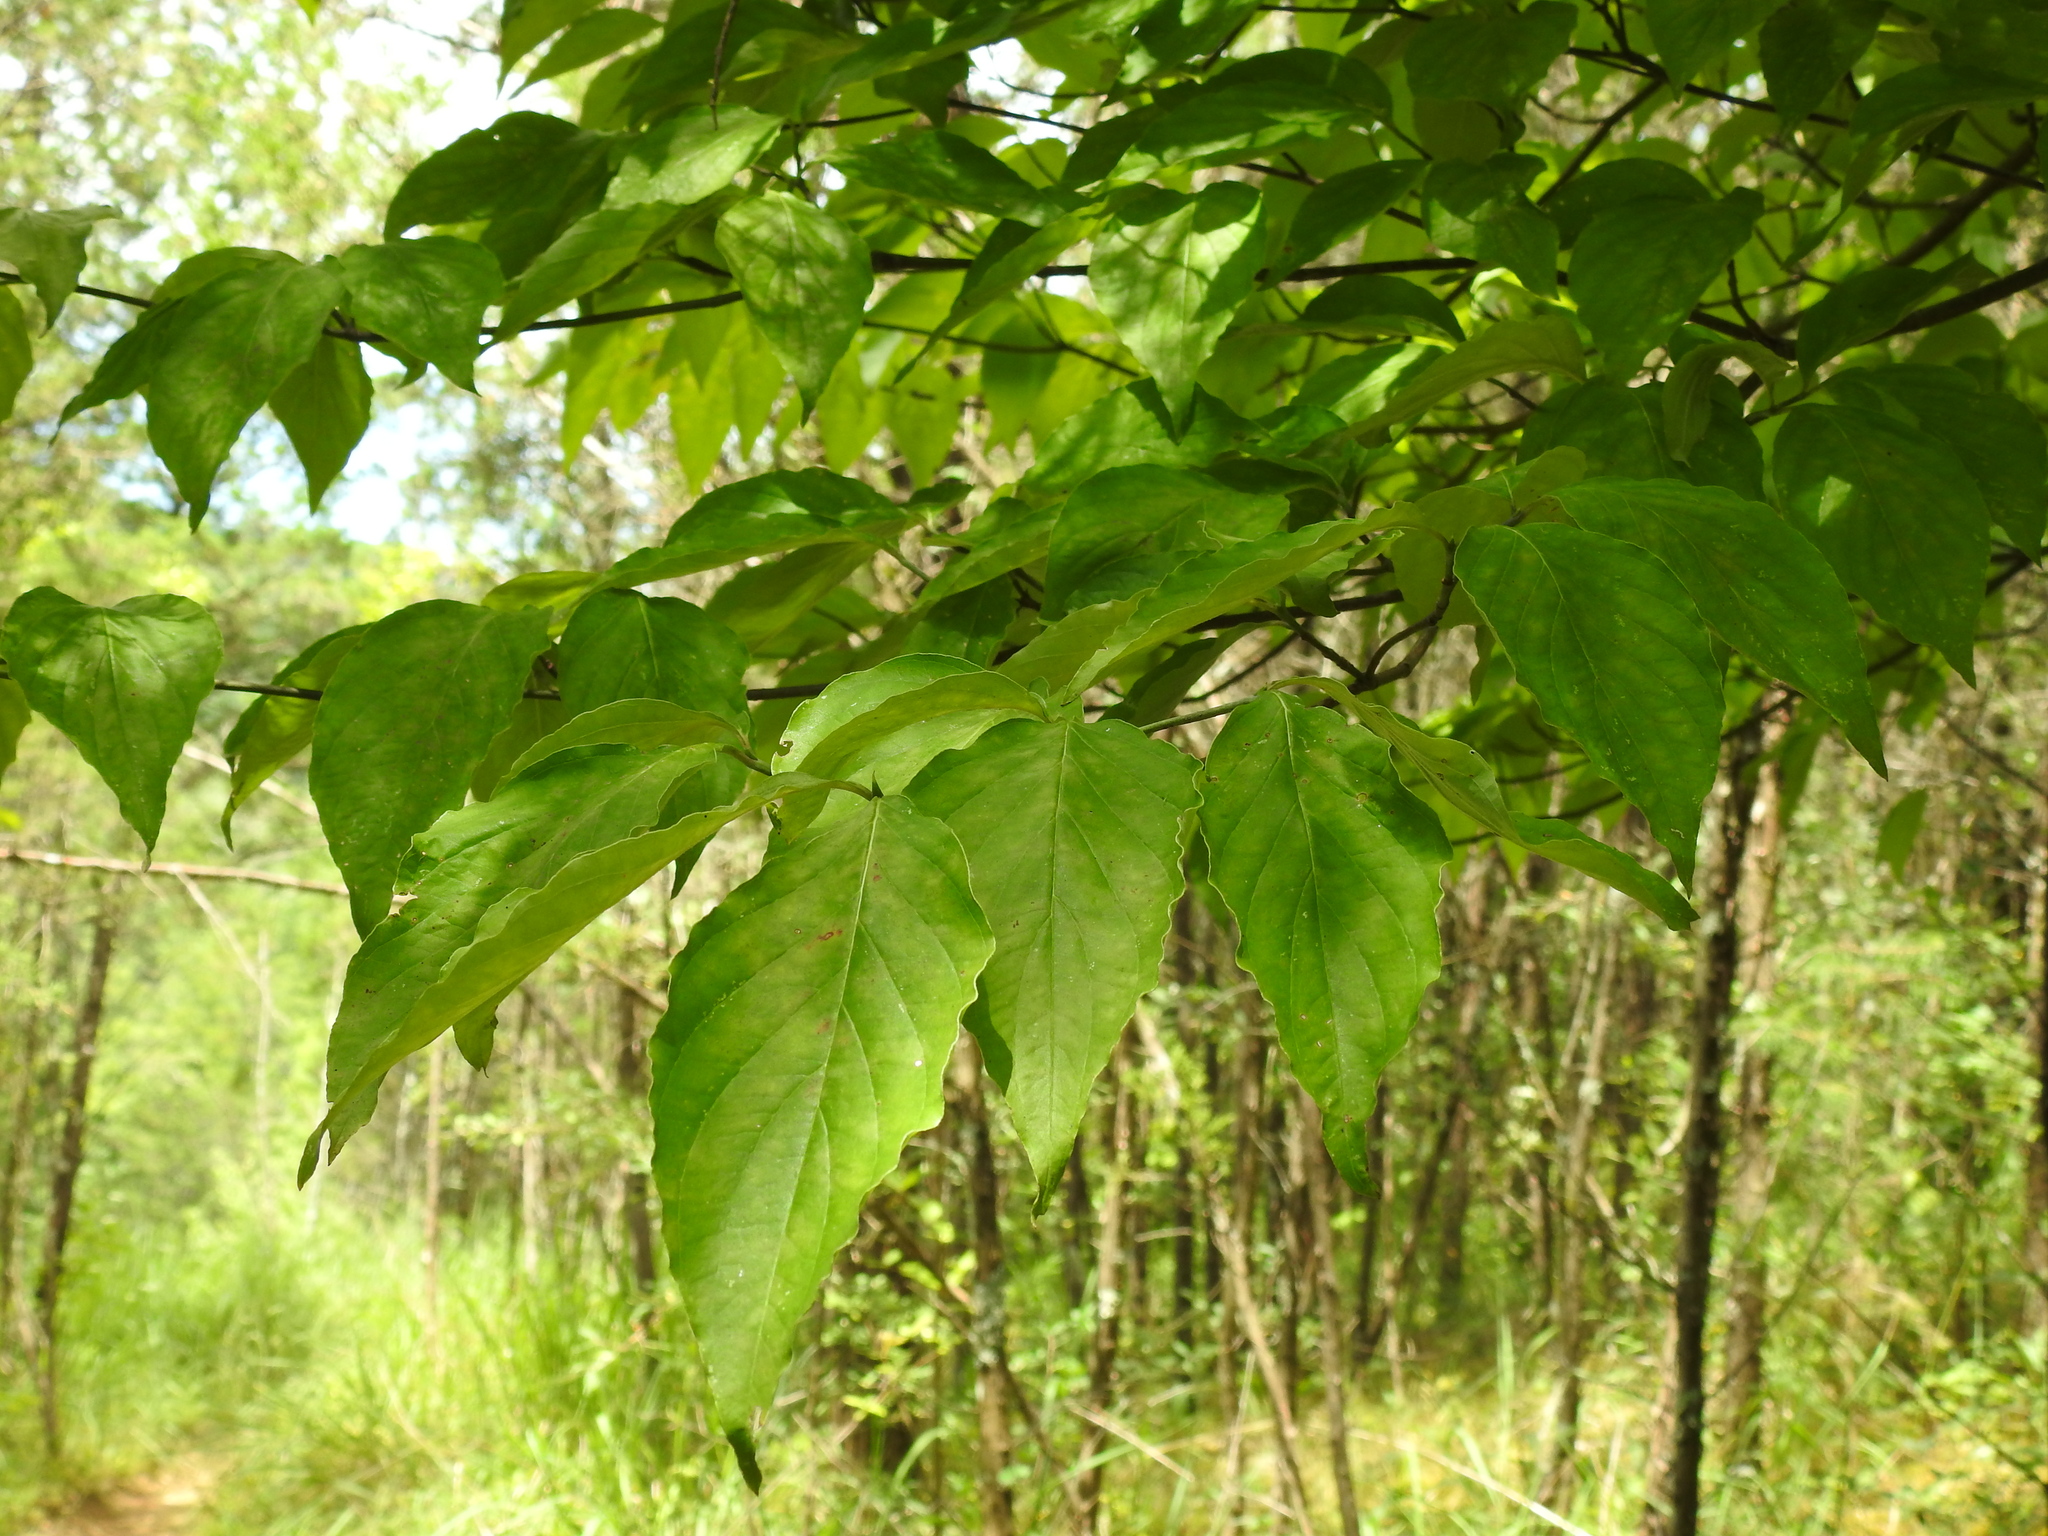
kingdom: Plantae
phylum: Tracheophyta
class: Magnoliopsida
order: Cornales
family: Cornaceae
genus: Cornus
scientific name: Cornus florida
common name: Flowering dogwood
